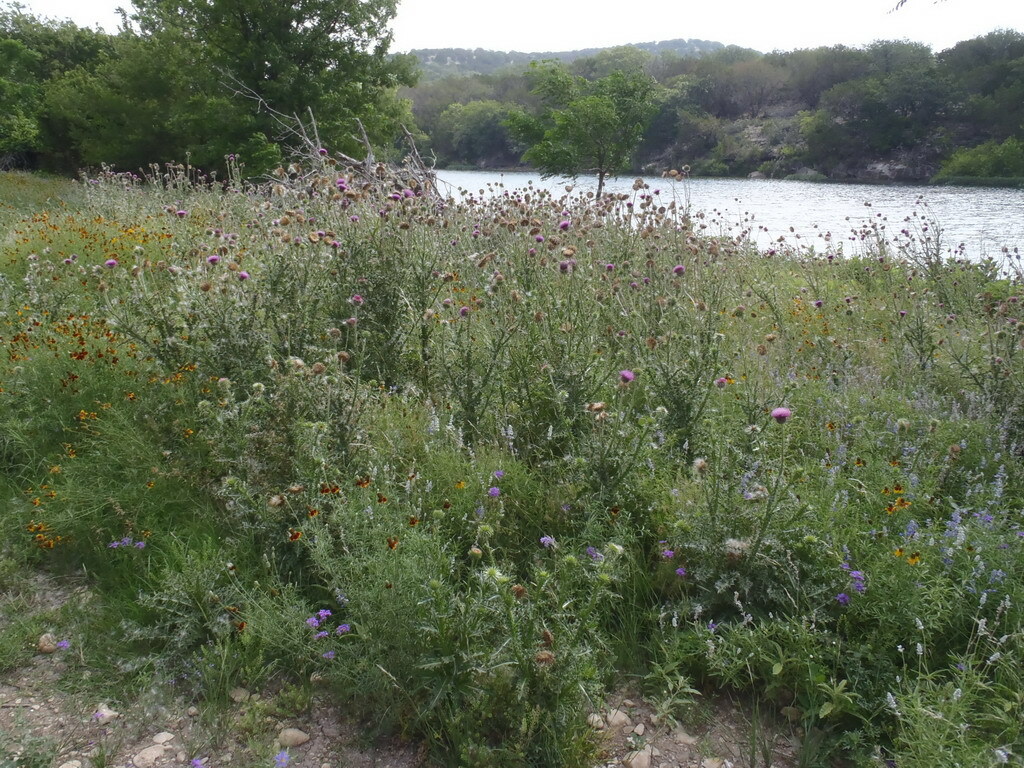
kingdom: Plantae
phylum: Tracheophyta
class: Magnoliopsida
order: Asterales
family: Asteraceae
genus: Carduus
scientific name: Carduus nutans
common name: Musk thistle
